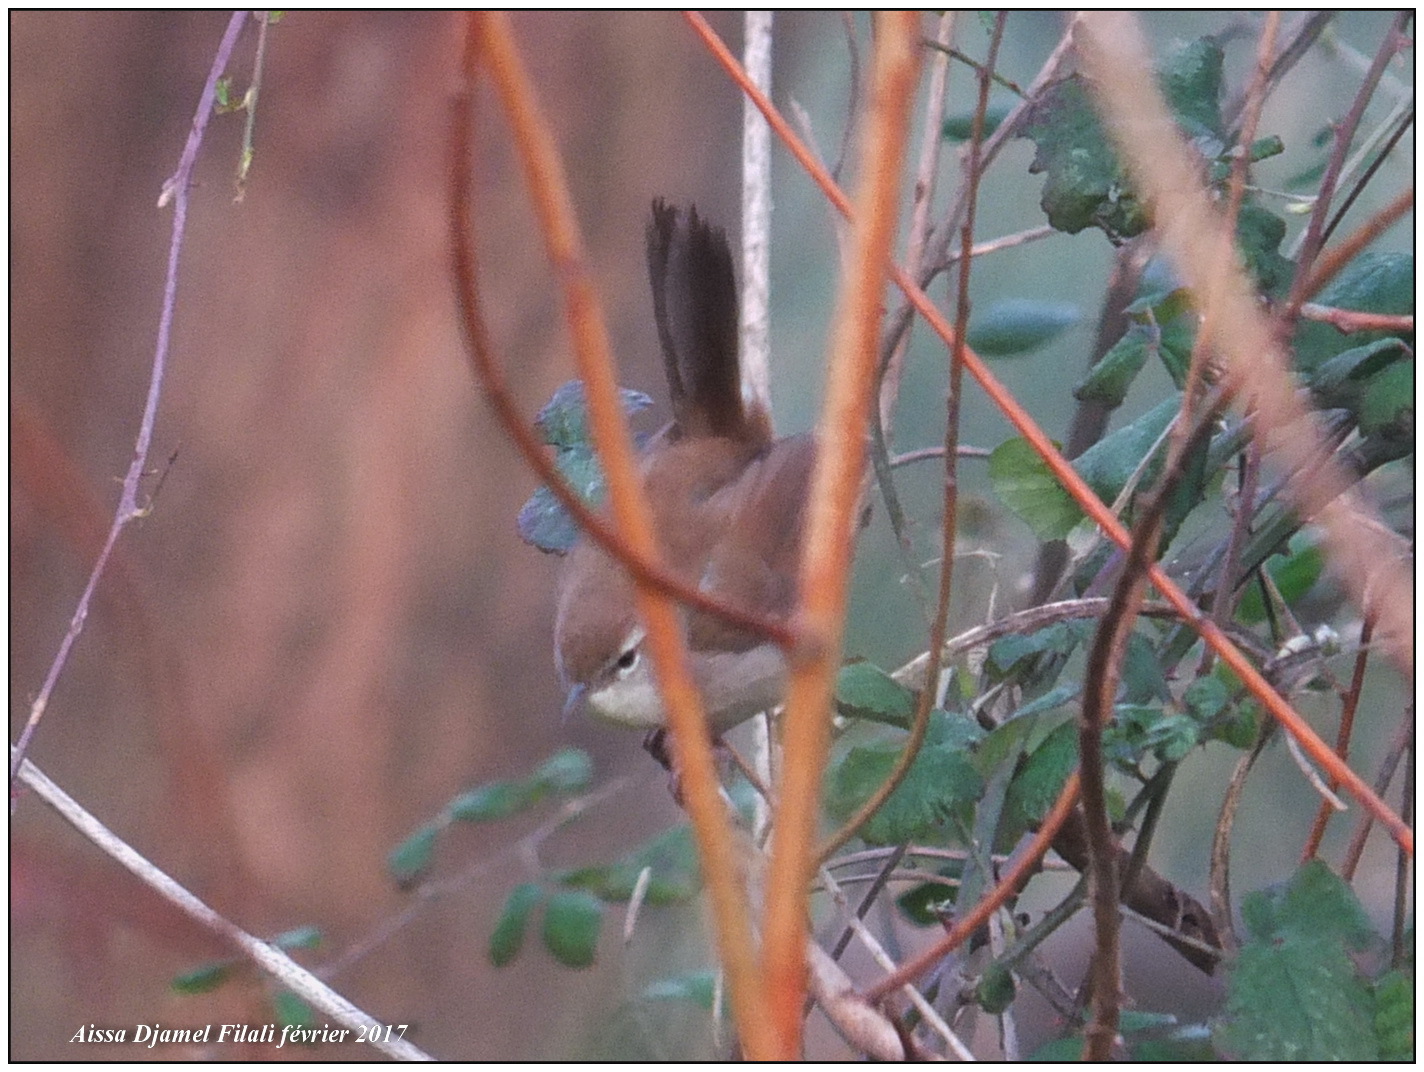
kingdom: Animalia
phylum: Chordata
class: Aves
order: Passeriformes
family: Cettiidae
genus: Cettia
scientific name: Cettia cetti
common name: Cetti's warbler
